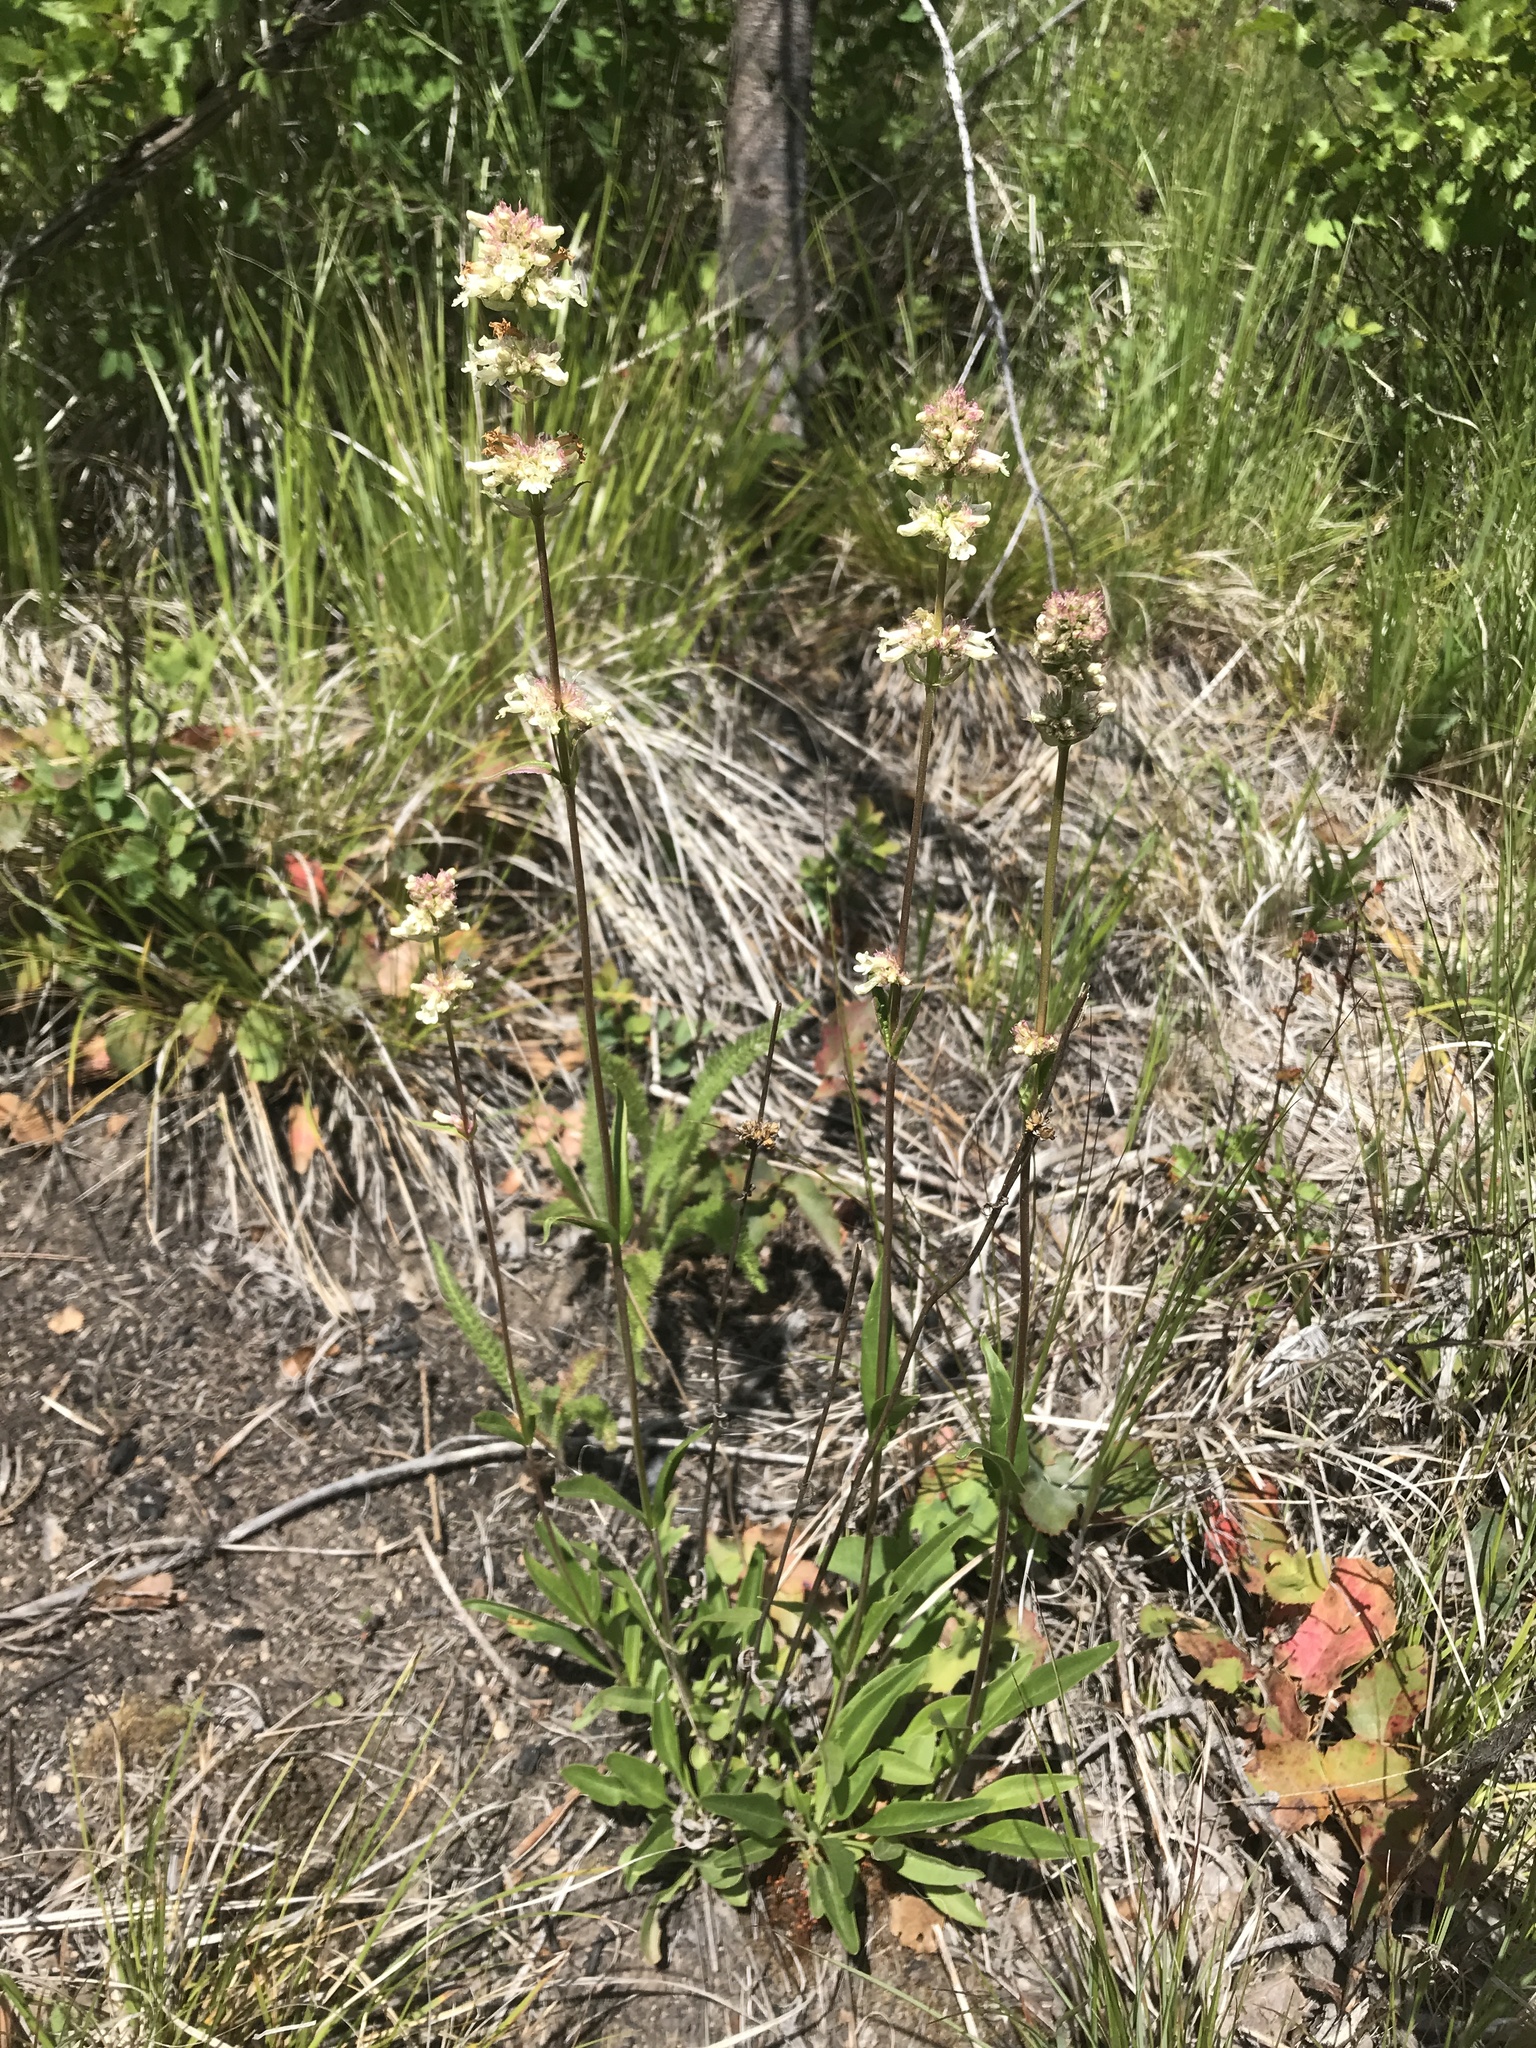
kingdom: Plantae
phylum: Tracheophyta
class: Magnoliopsida
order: Lamiales
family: Plantaginaceae
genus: Penstemon
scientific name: Penstemon confertus
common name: Lesser yellow beardtongue
